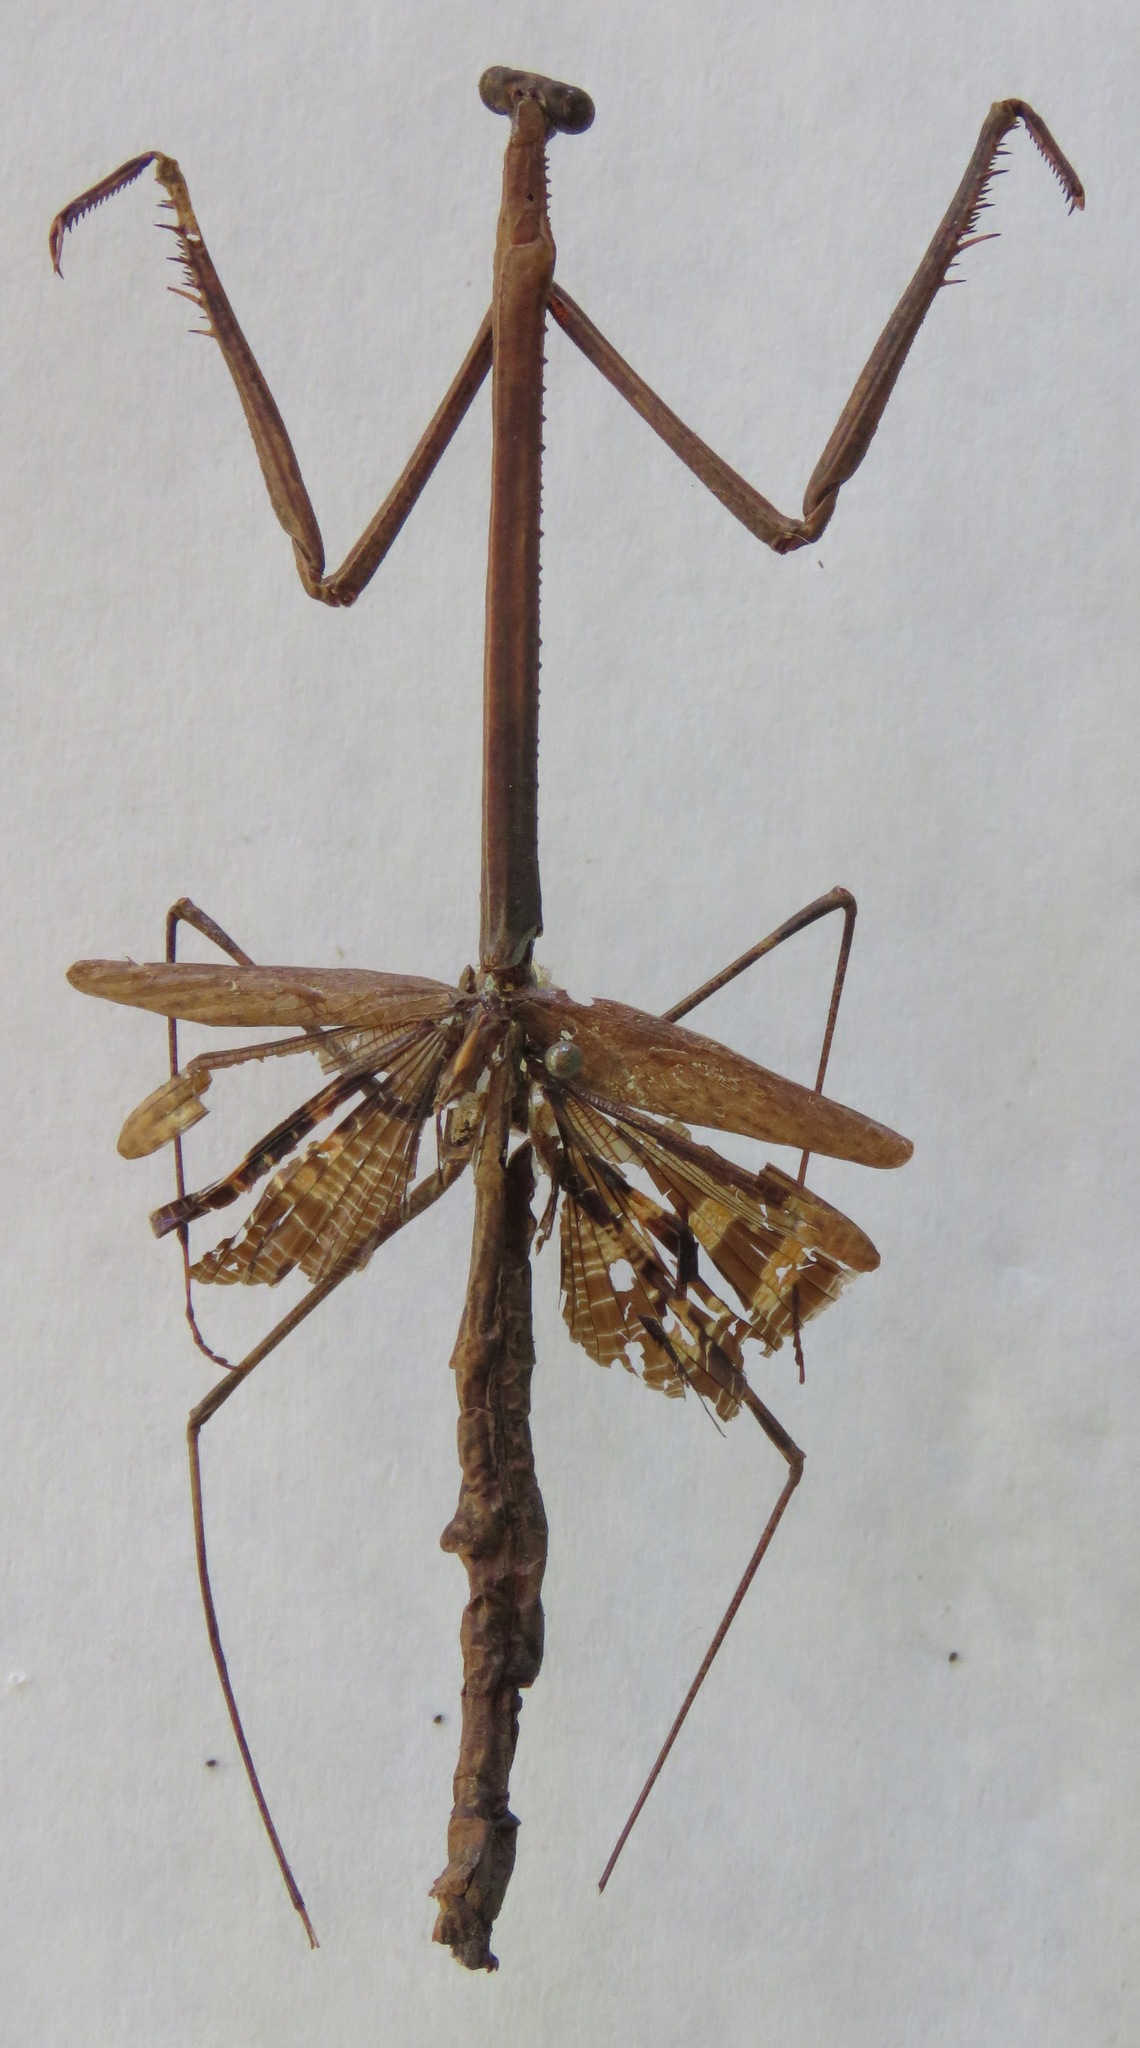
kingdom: Animalia
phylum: Arthropoda
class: Insecta
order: Mantodea
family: Angelidae
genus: Angela
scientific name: Angela armata
